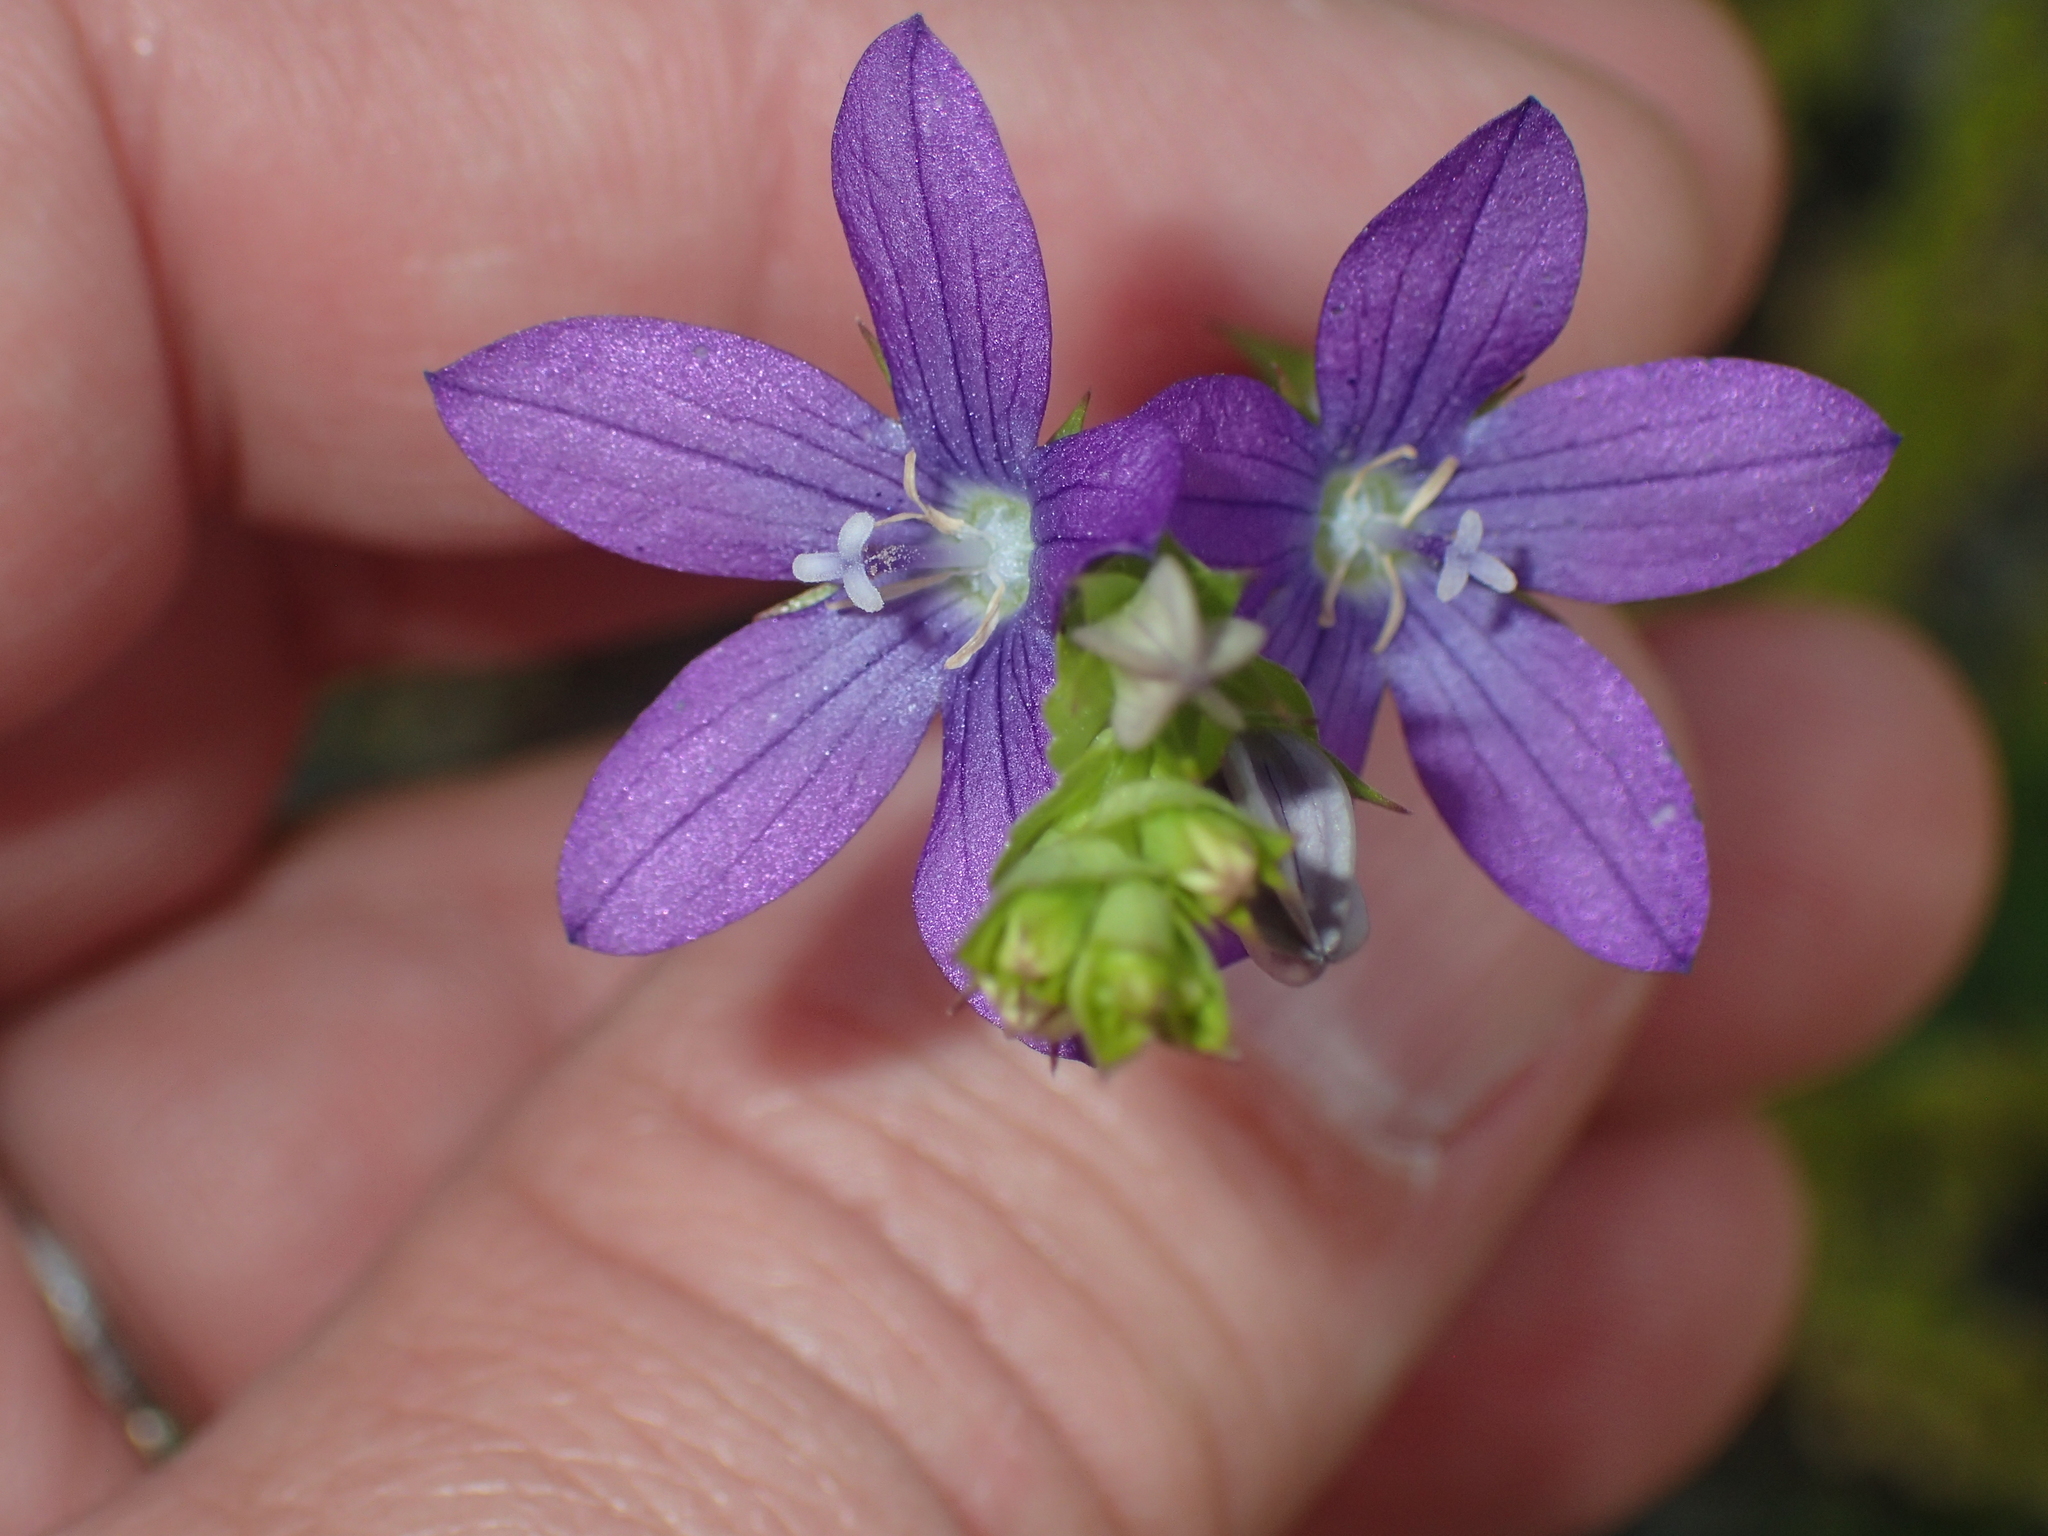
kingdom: Plantae
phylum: Tracheophyta
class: Magnoliopsida
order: Asterales
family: Campanulaceae
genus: Triodanis
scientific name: Triodanis perfoliata
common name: Clasping venus' looking-glass
